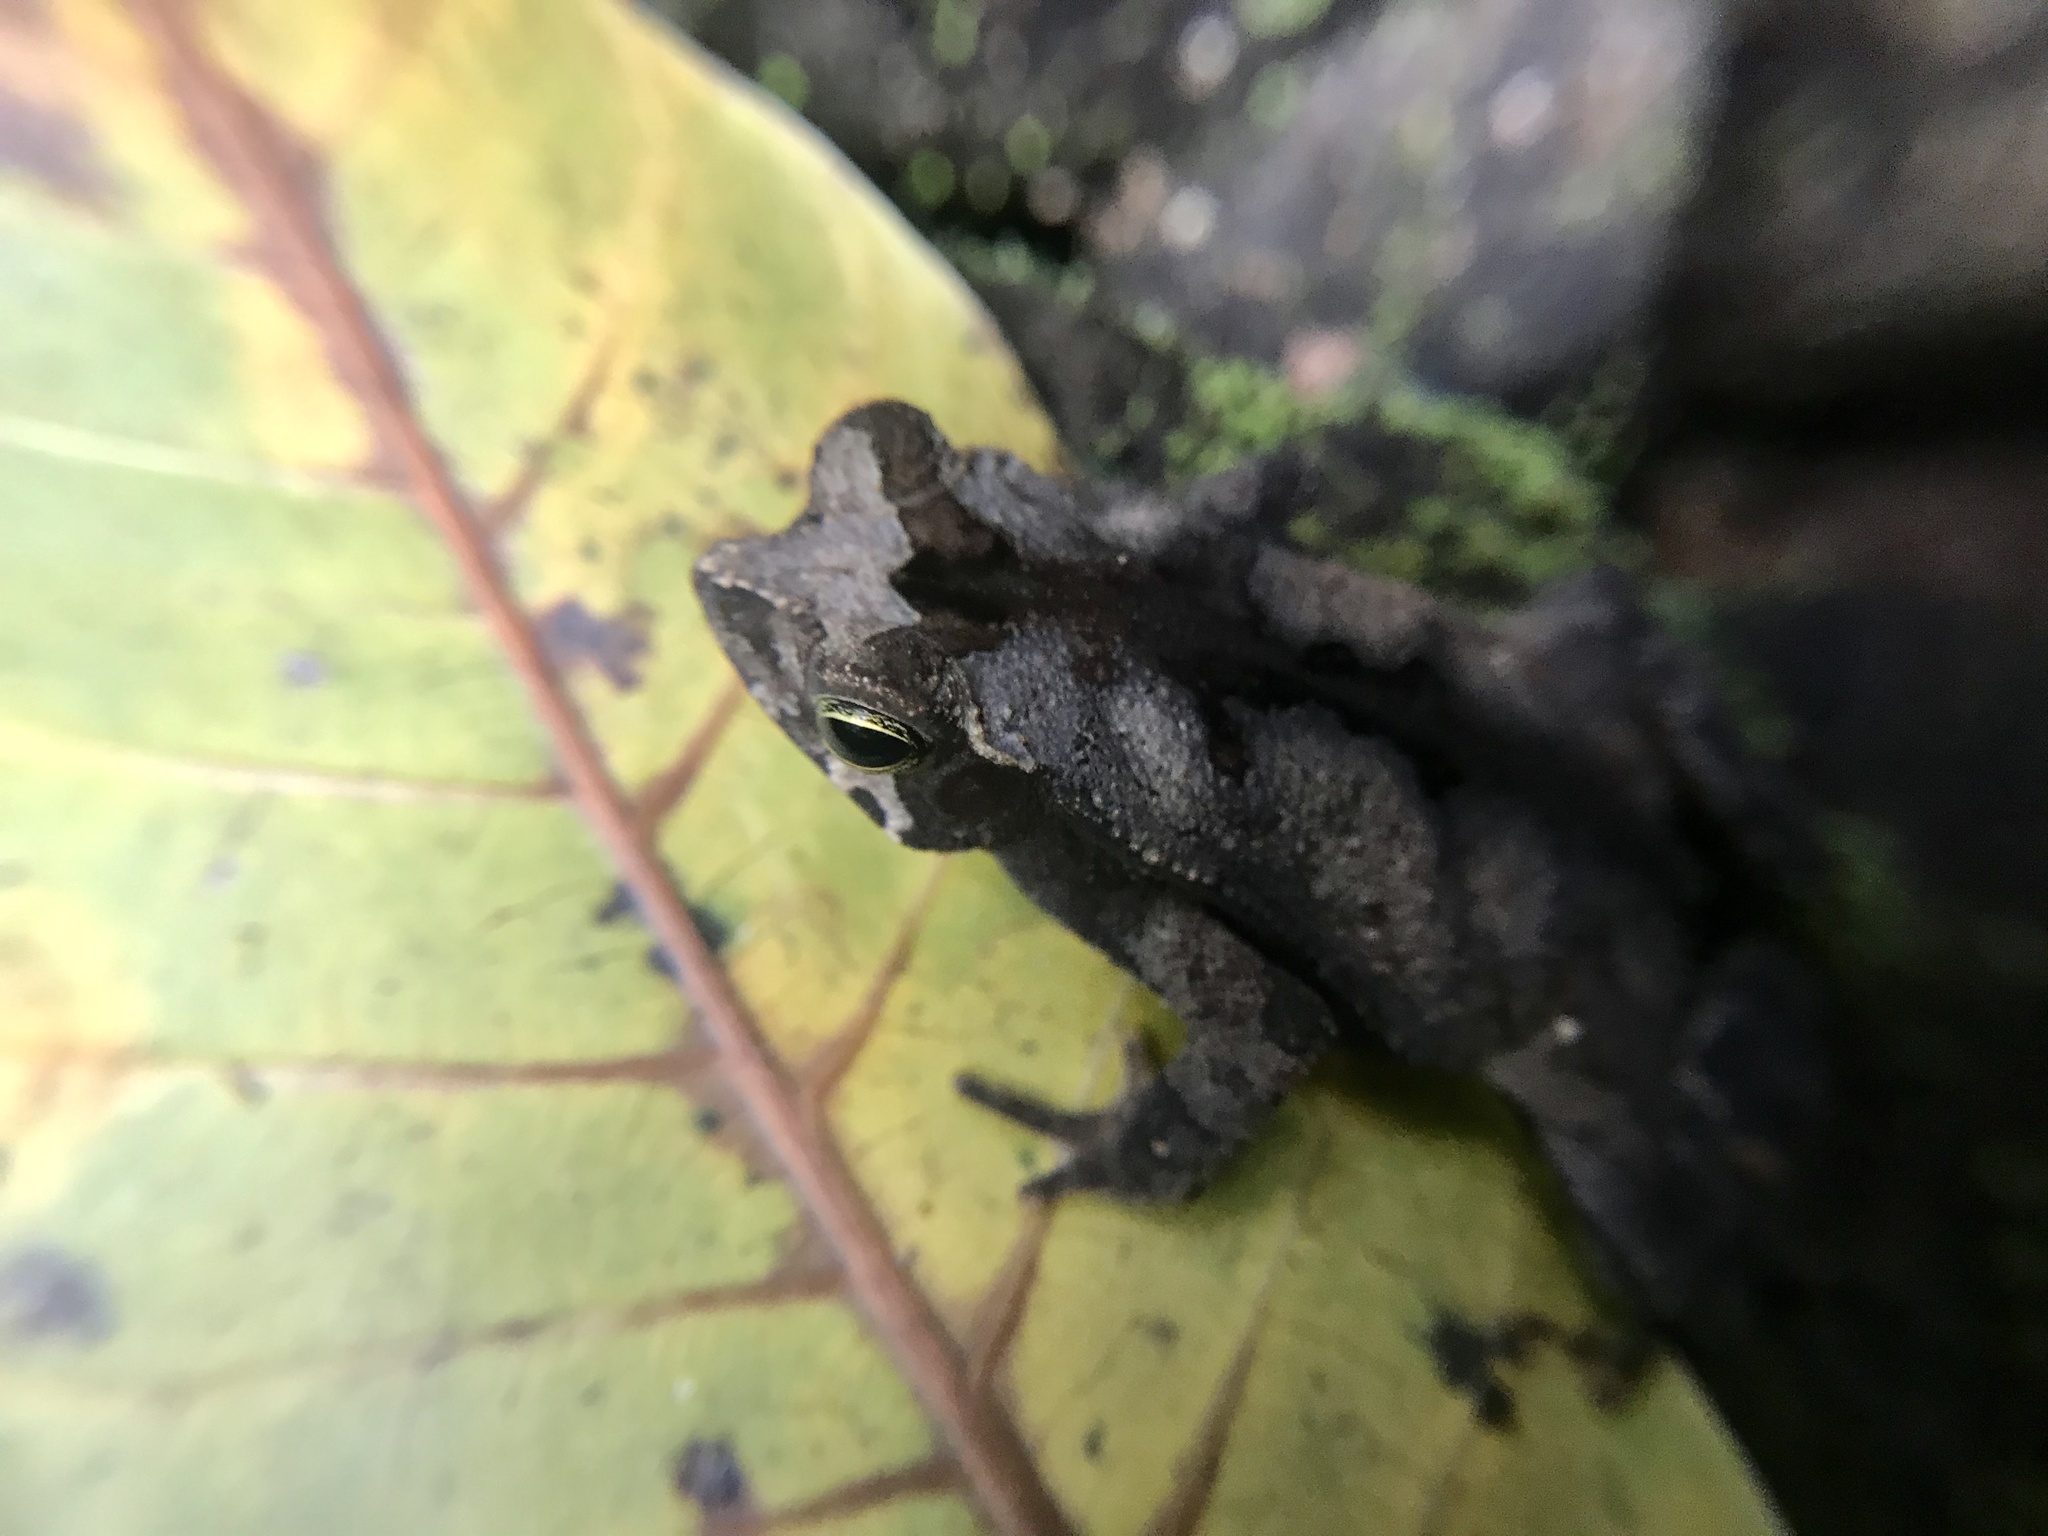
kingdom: Animalia
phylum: Chordata
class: Amphibia
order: Anura
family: Bufonidae
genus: Rhinella
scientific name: Rhinella alata
